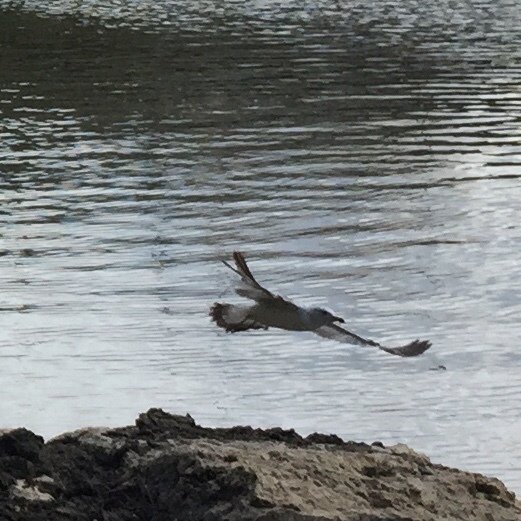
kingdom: Animalia
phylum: Chordata
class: Aves
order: Charadriiformes
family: Laridae
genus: Larus
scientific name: Larus delawarensis
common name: Ring-billed gull
